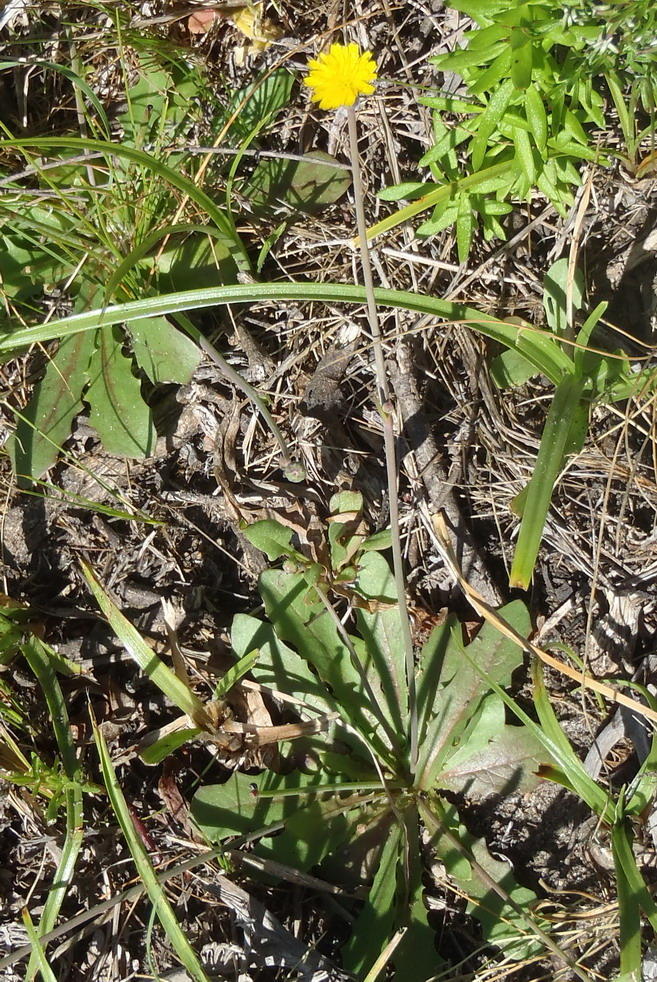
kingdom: Plantae
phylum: Tracheophyta
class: Magnoliopsida
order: Asterales
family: Asteraceae
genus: Hypochaeris
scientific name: Hypochaeris glabra
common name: Smooth catsear
